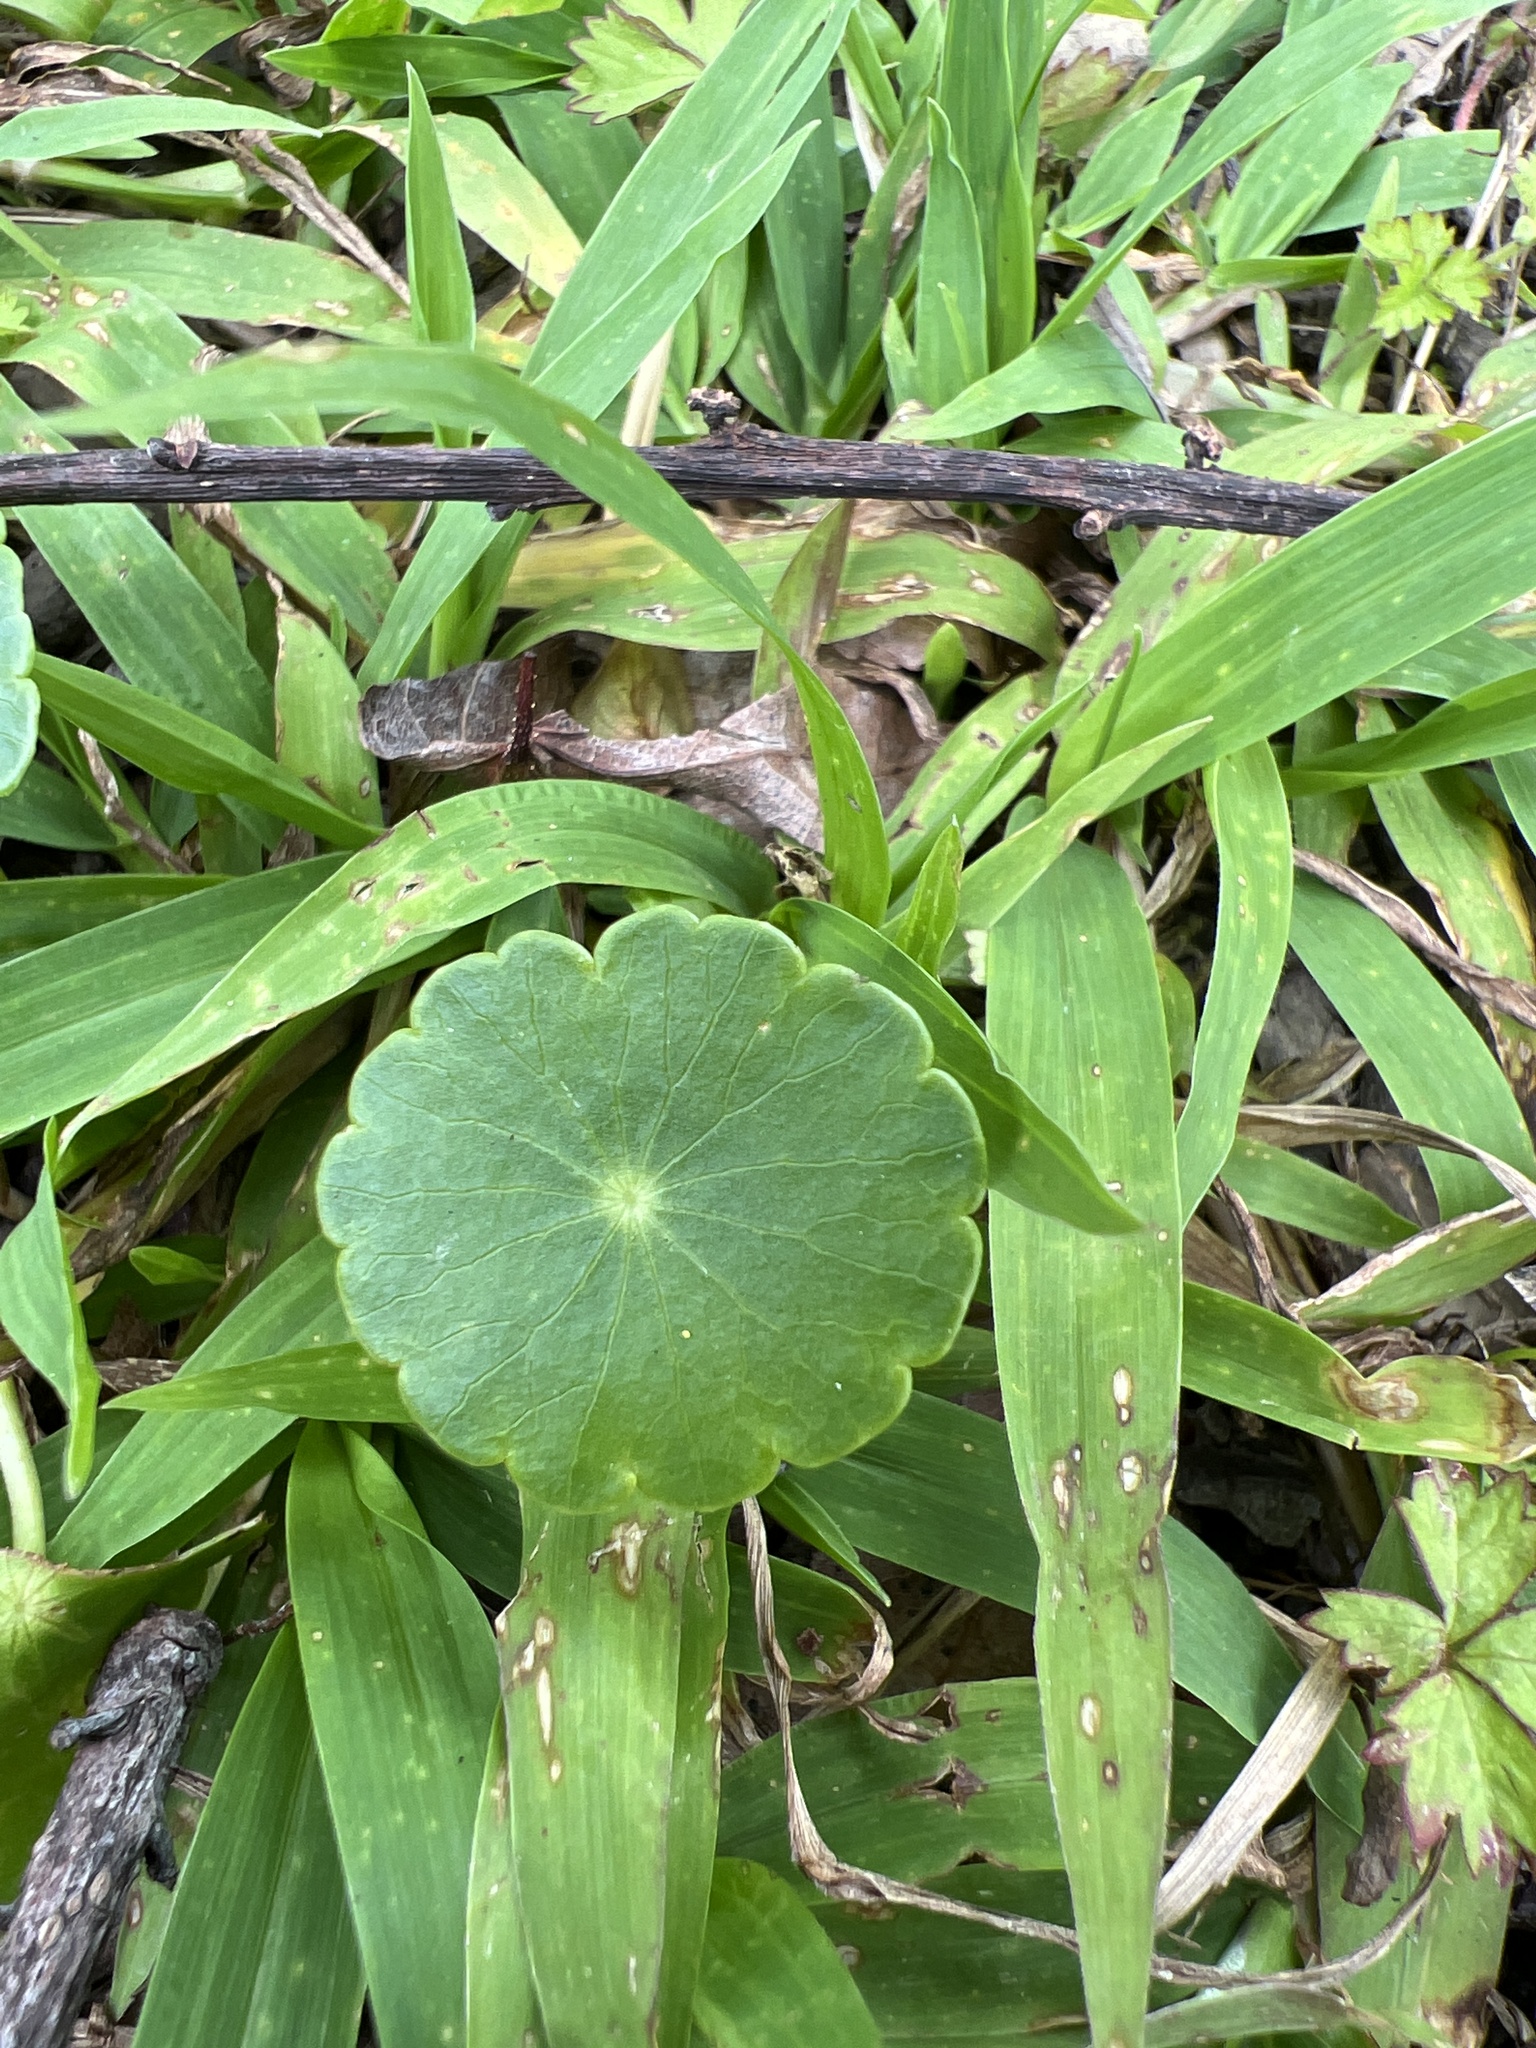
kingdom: Plantae
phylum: Tracheophyta
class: Magnoliopsida
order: Apiales
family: Araliaceae
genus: Hydrocotyle
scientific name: Hydrocotyle verticillata
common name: Whorled marshpennywort
